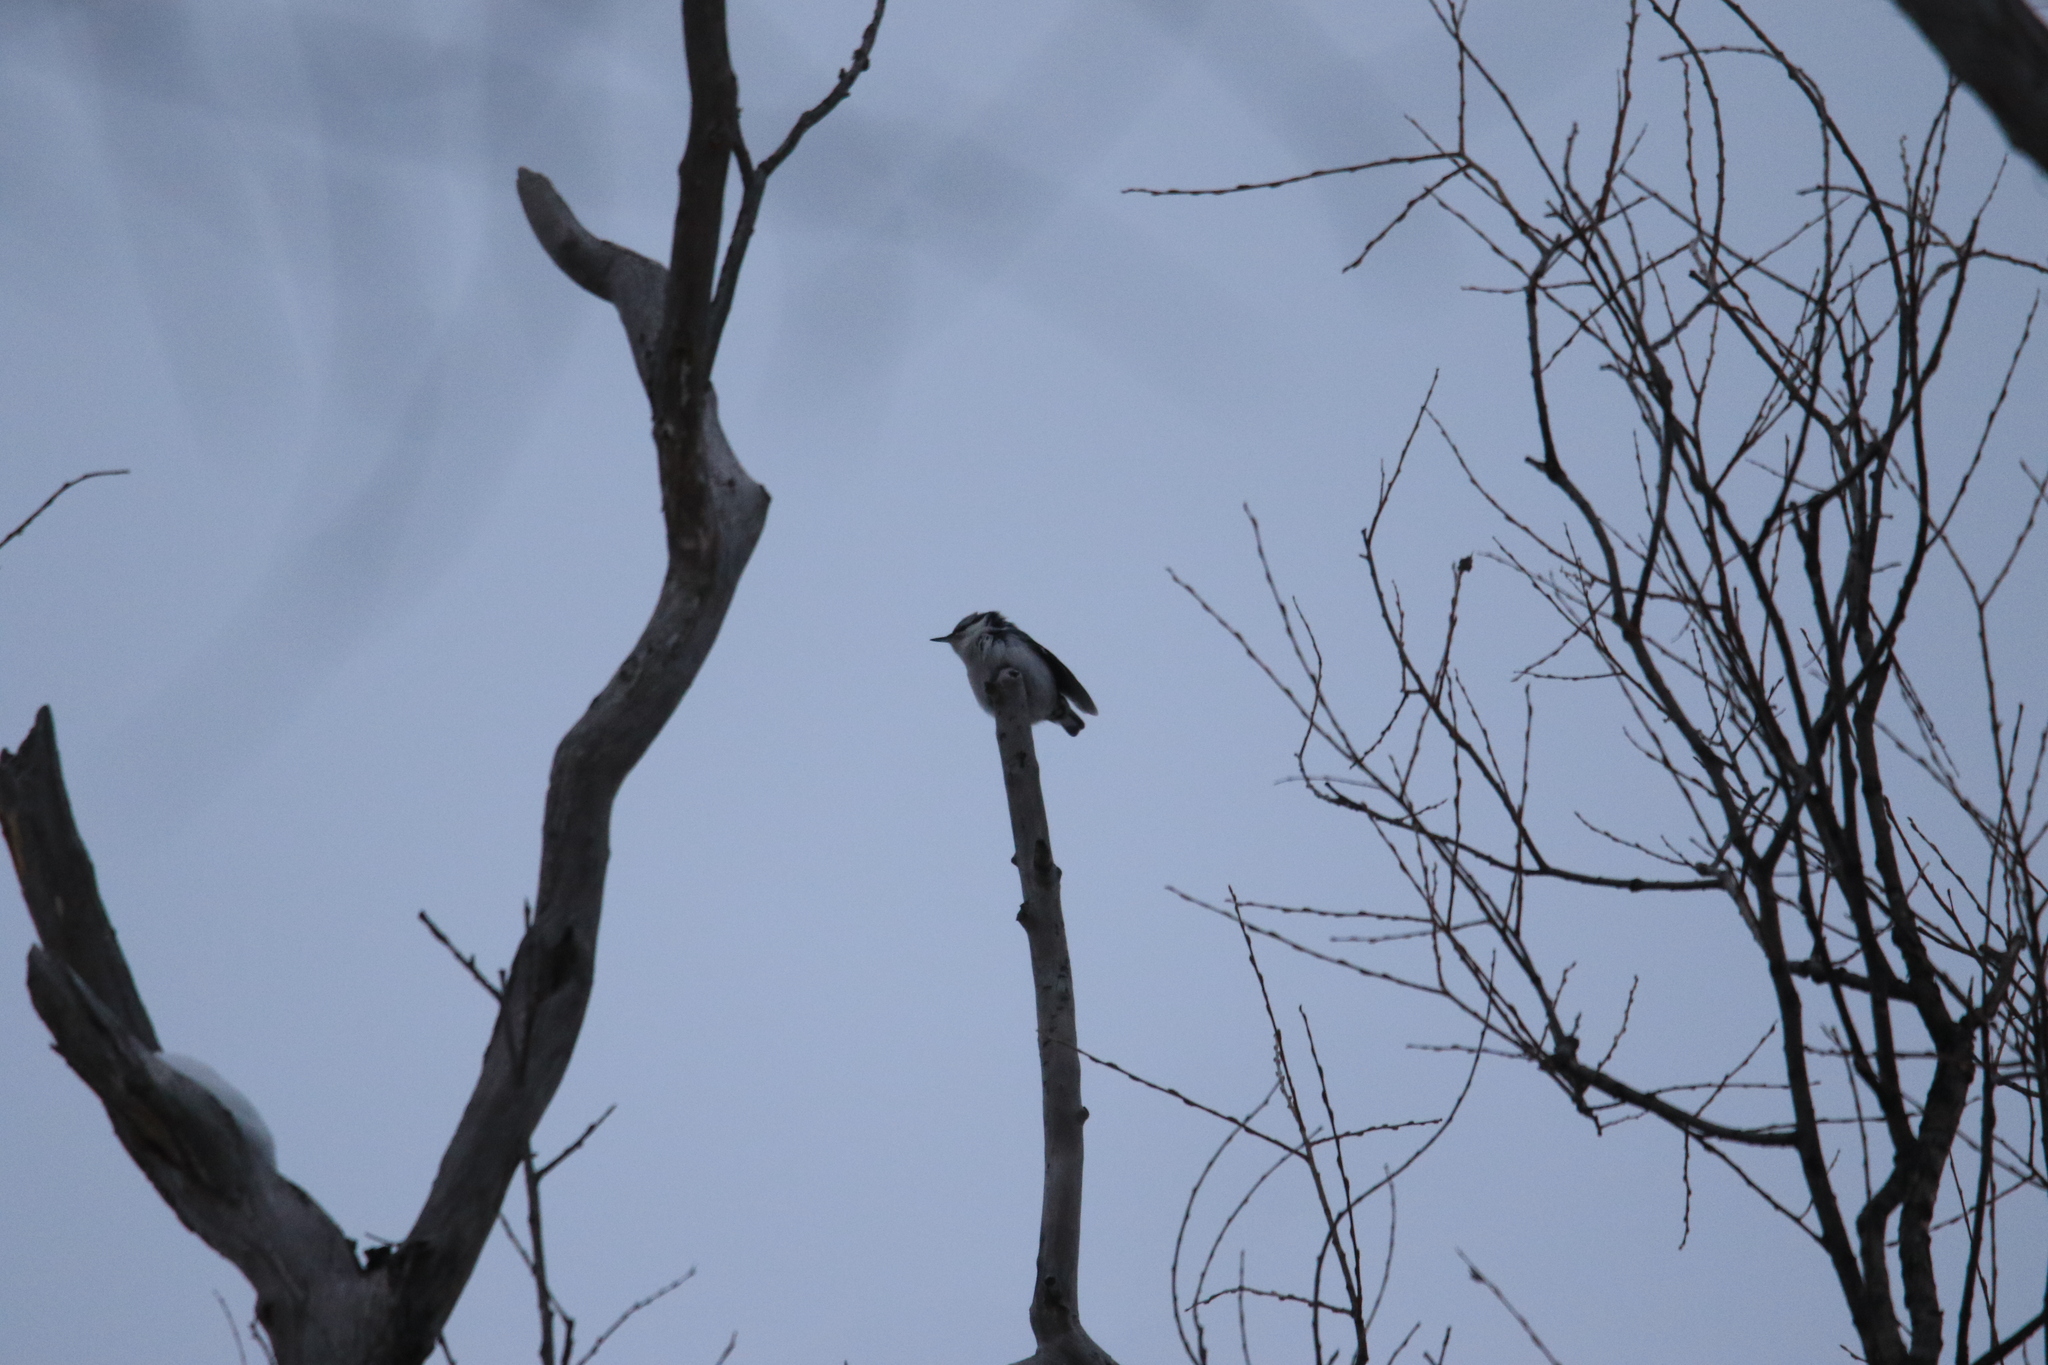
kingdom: Animalia
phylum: Chordata
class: Aves
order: Passeriformes
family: Sittidae
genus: Sitta
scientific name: Sitta europaea
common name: Eurasian nuthatch
